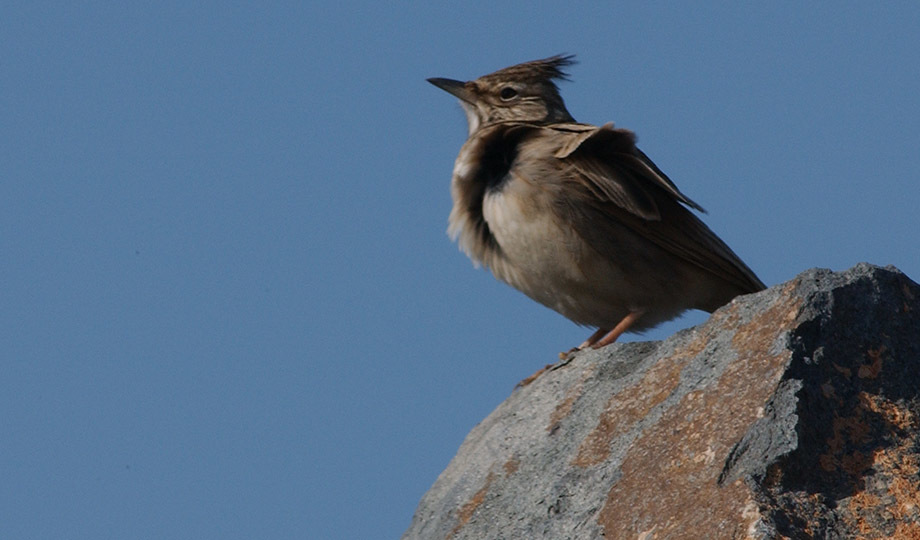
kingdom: Animalia
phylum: Chordata
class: Aves
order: Passeriformes
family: Alaudidae
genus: Galerida
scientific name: Galerida cristata
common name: Crested lark
